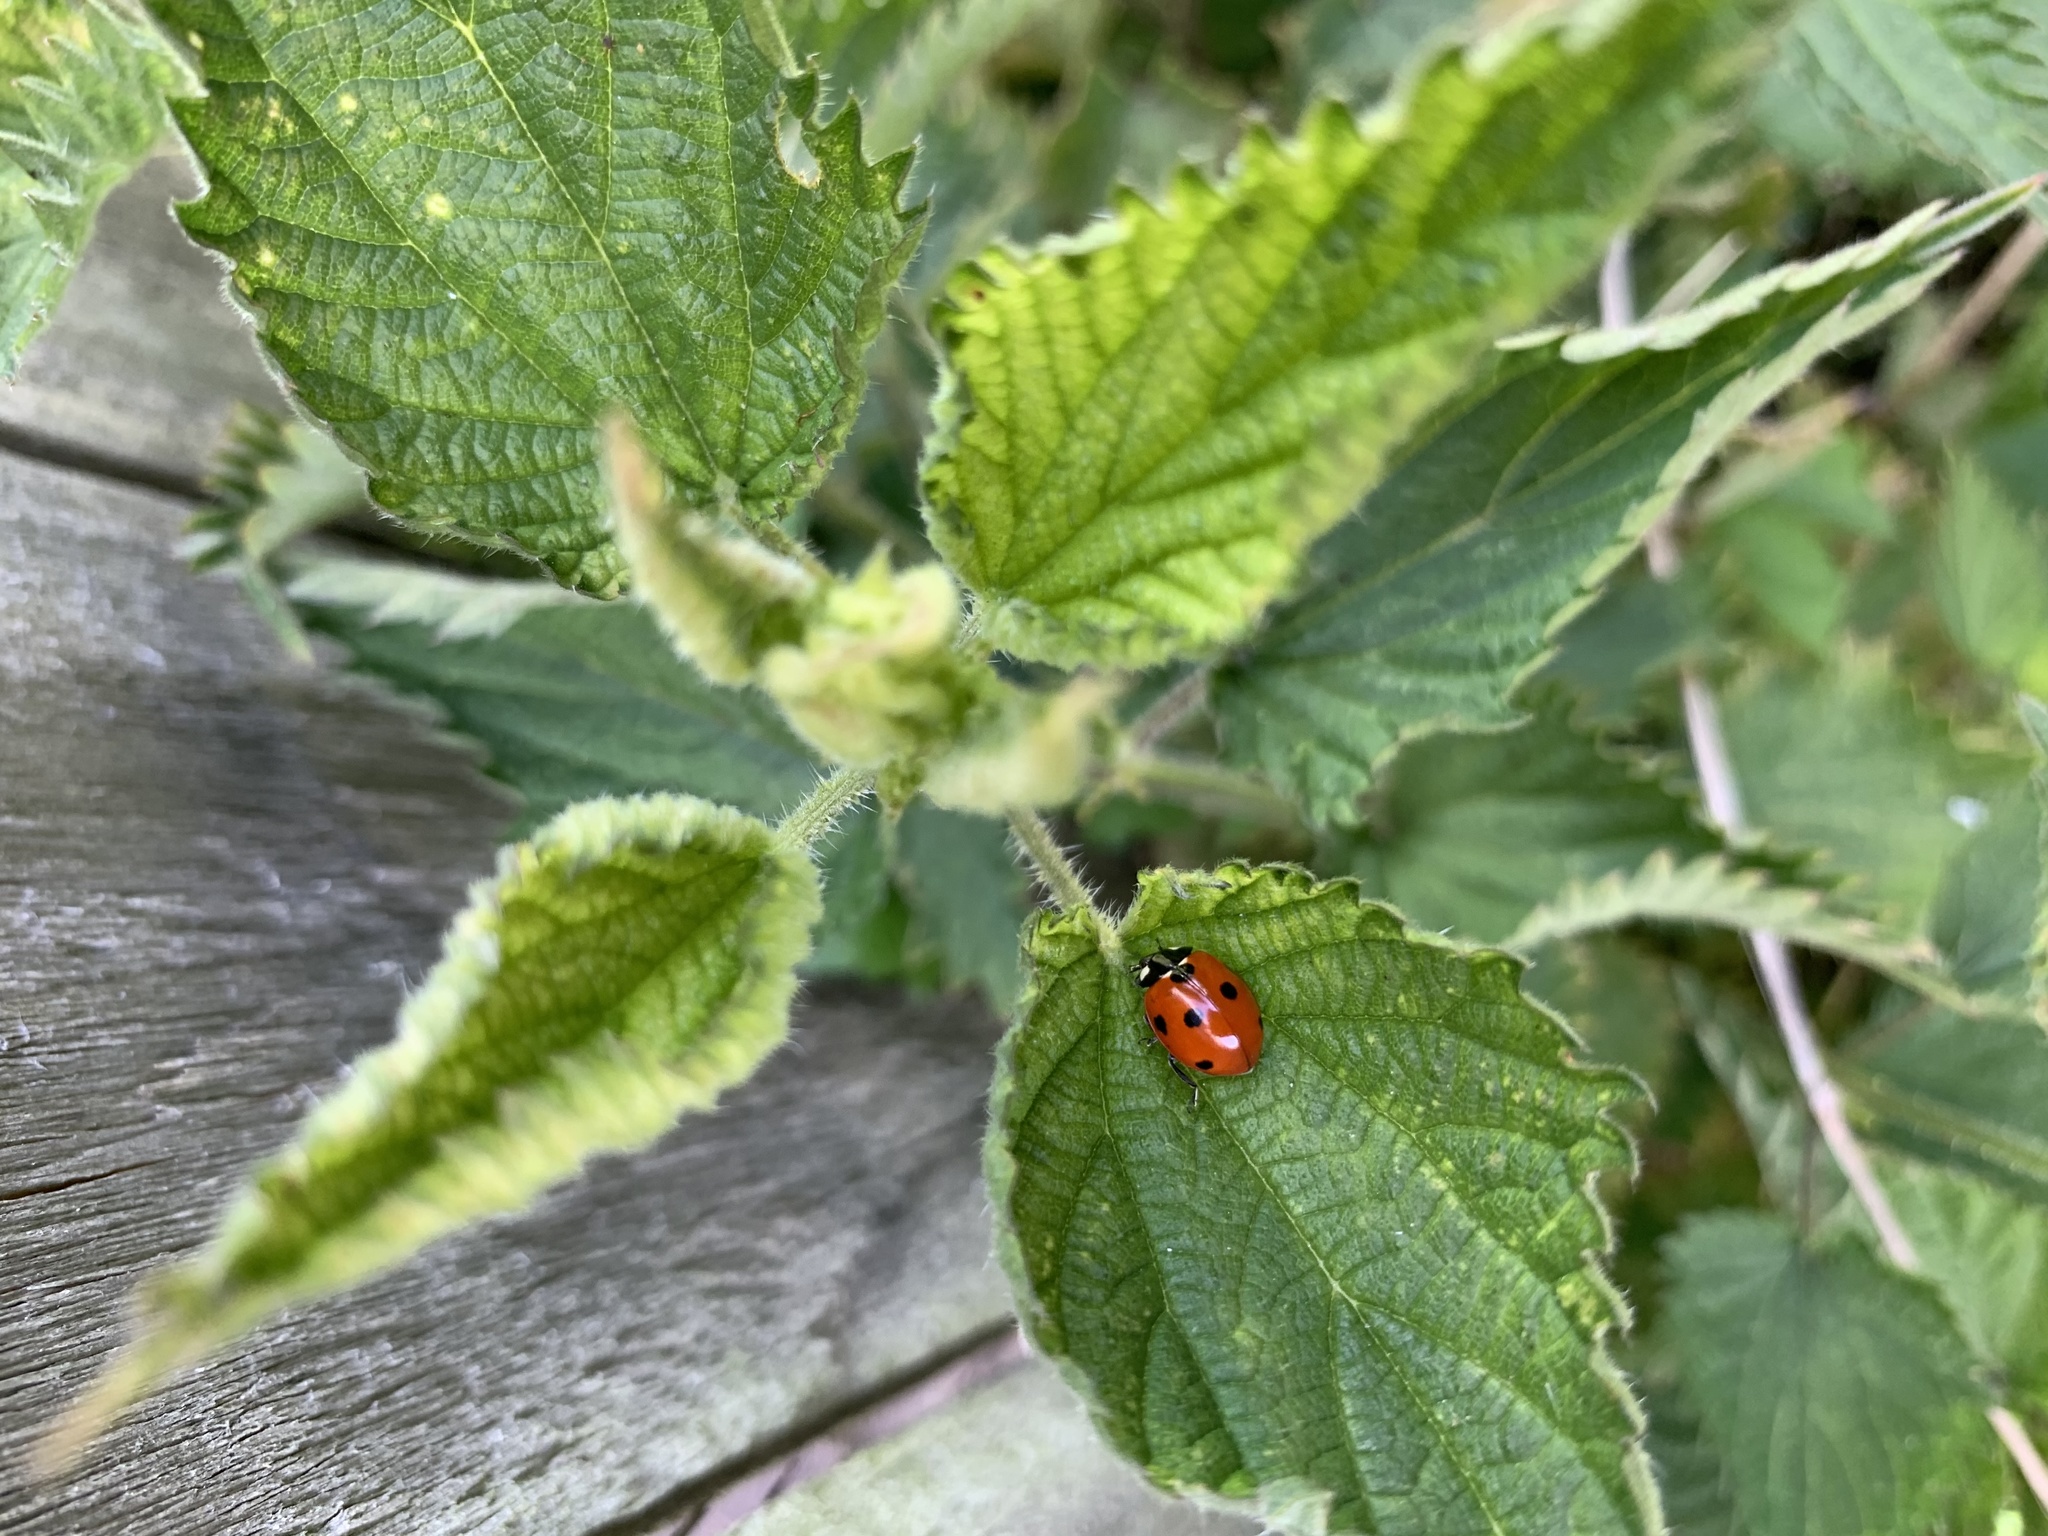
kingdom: Animalia
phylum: Arthropoda
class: Insecta
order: Coleoptera
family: Coccinellidae
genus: Coccinella
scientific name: Coccinella septempunctata
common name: Sevenspotted lady beetle
